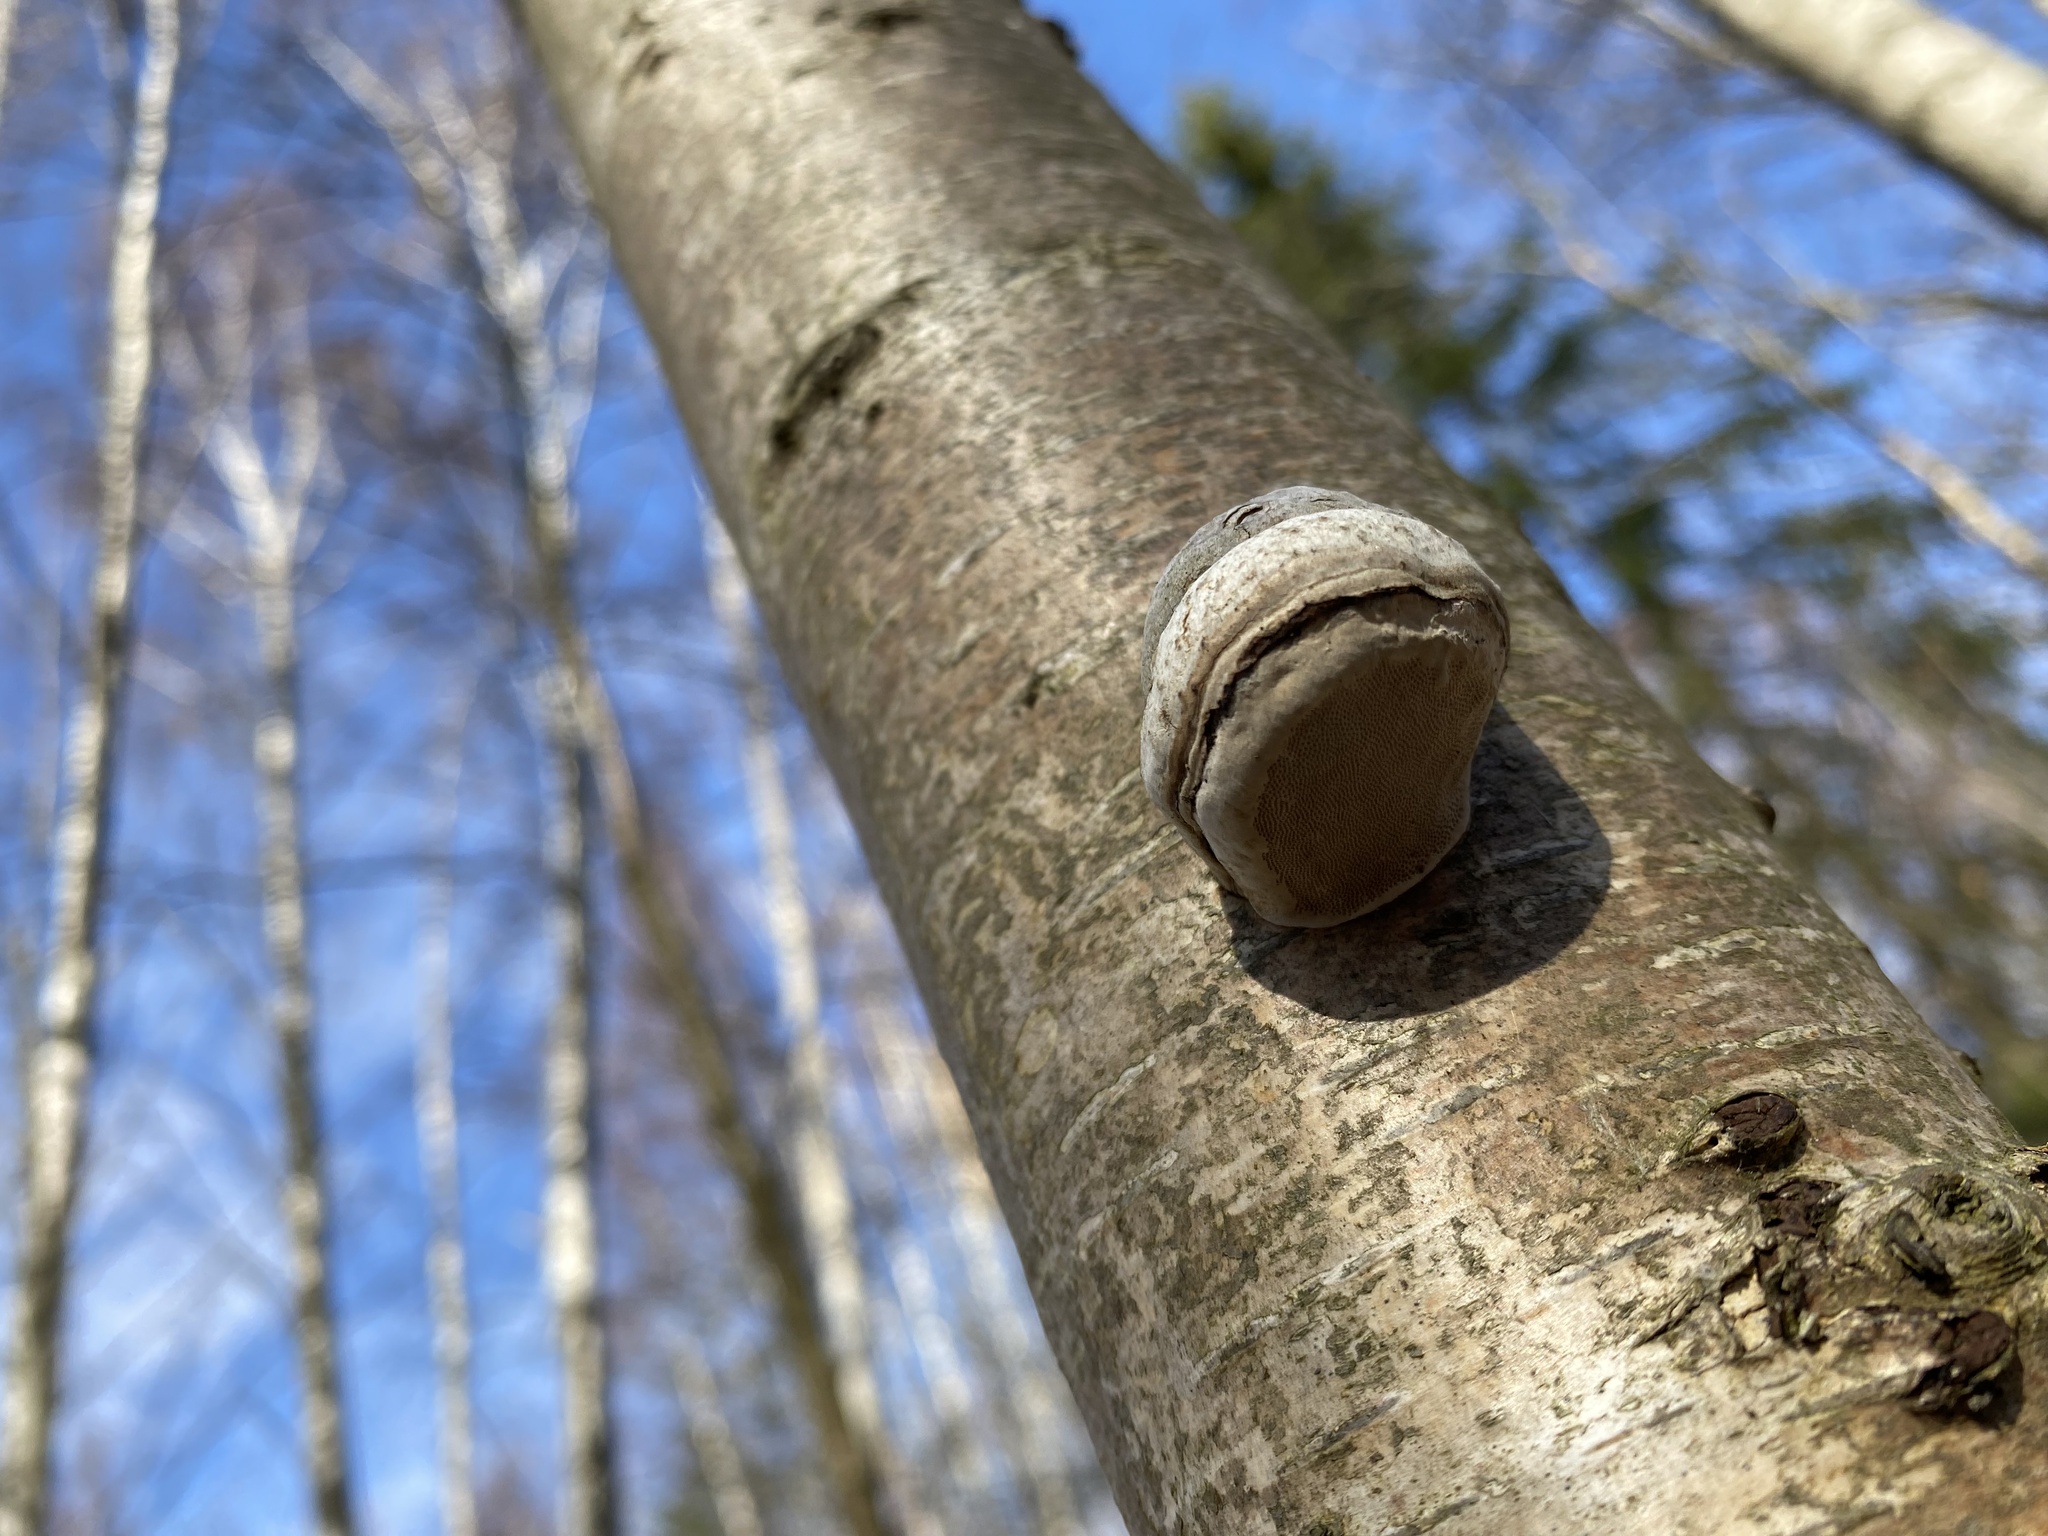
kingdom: Fungi
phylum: Basidiomycota
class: Agaricomycetes
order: Polyporales
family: Polyporaceae
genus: Fomes
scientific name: Fomes fomentarius
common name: Hoof fungus
